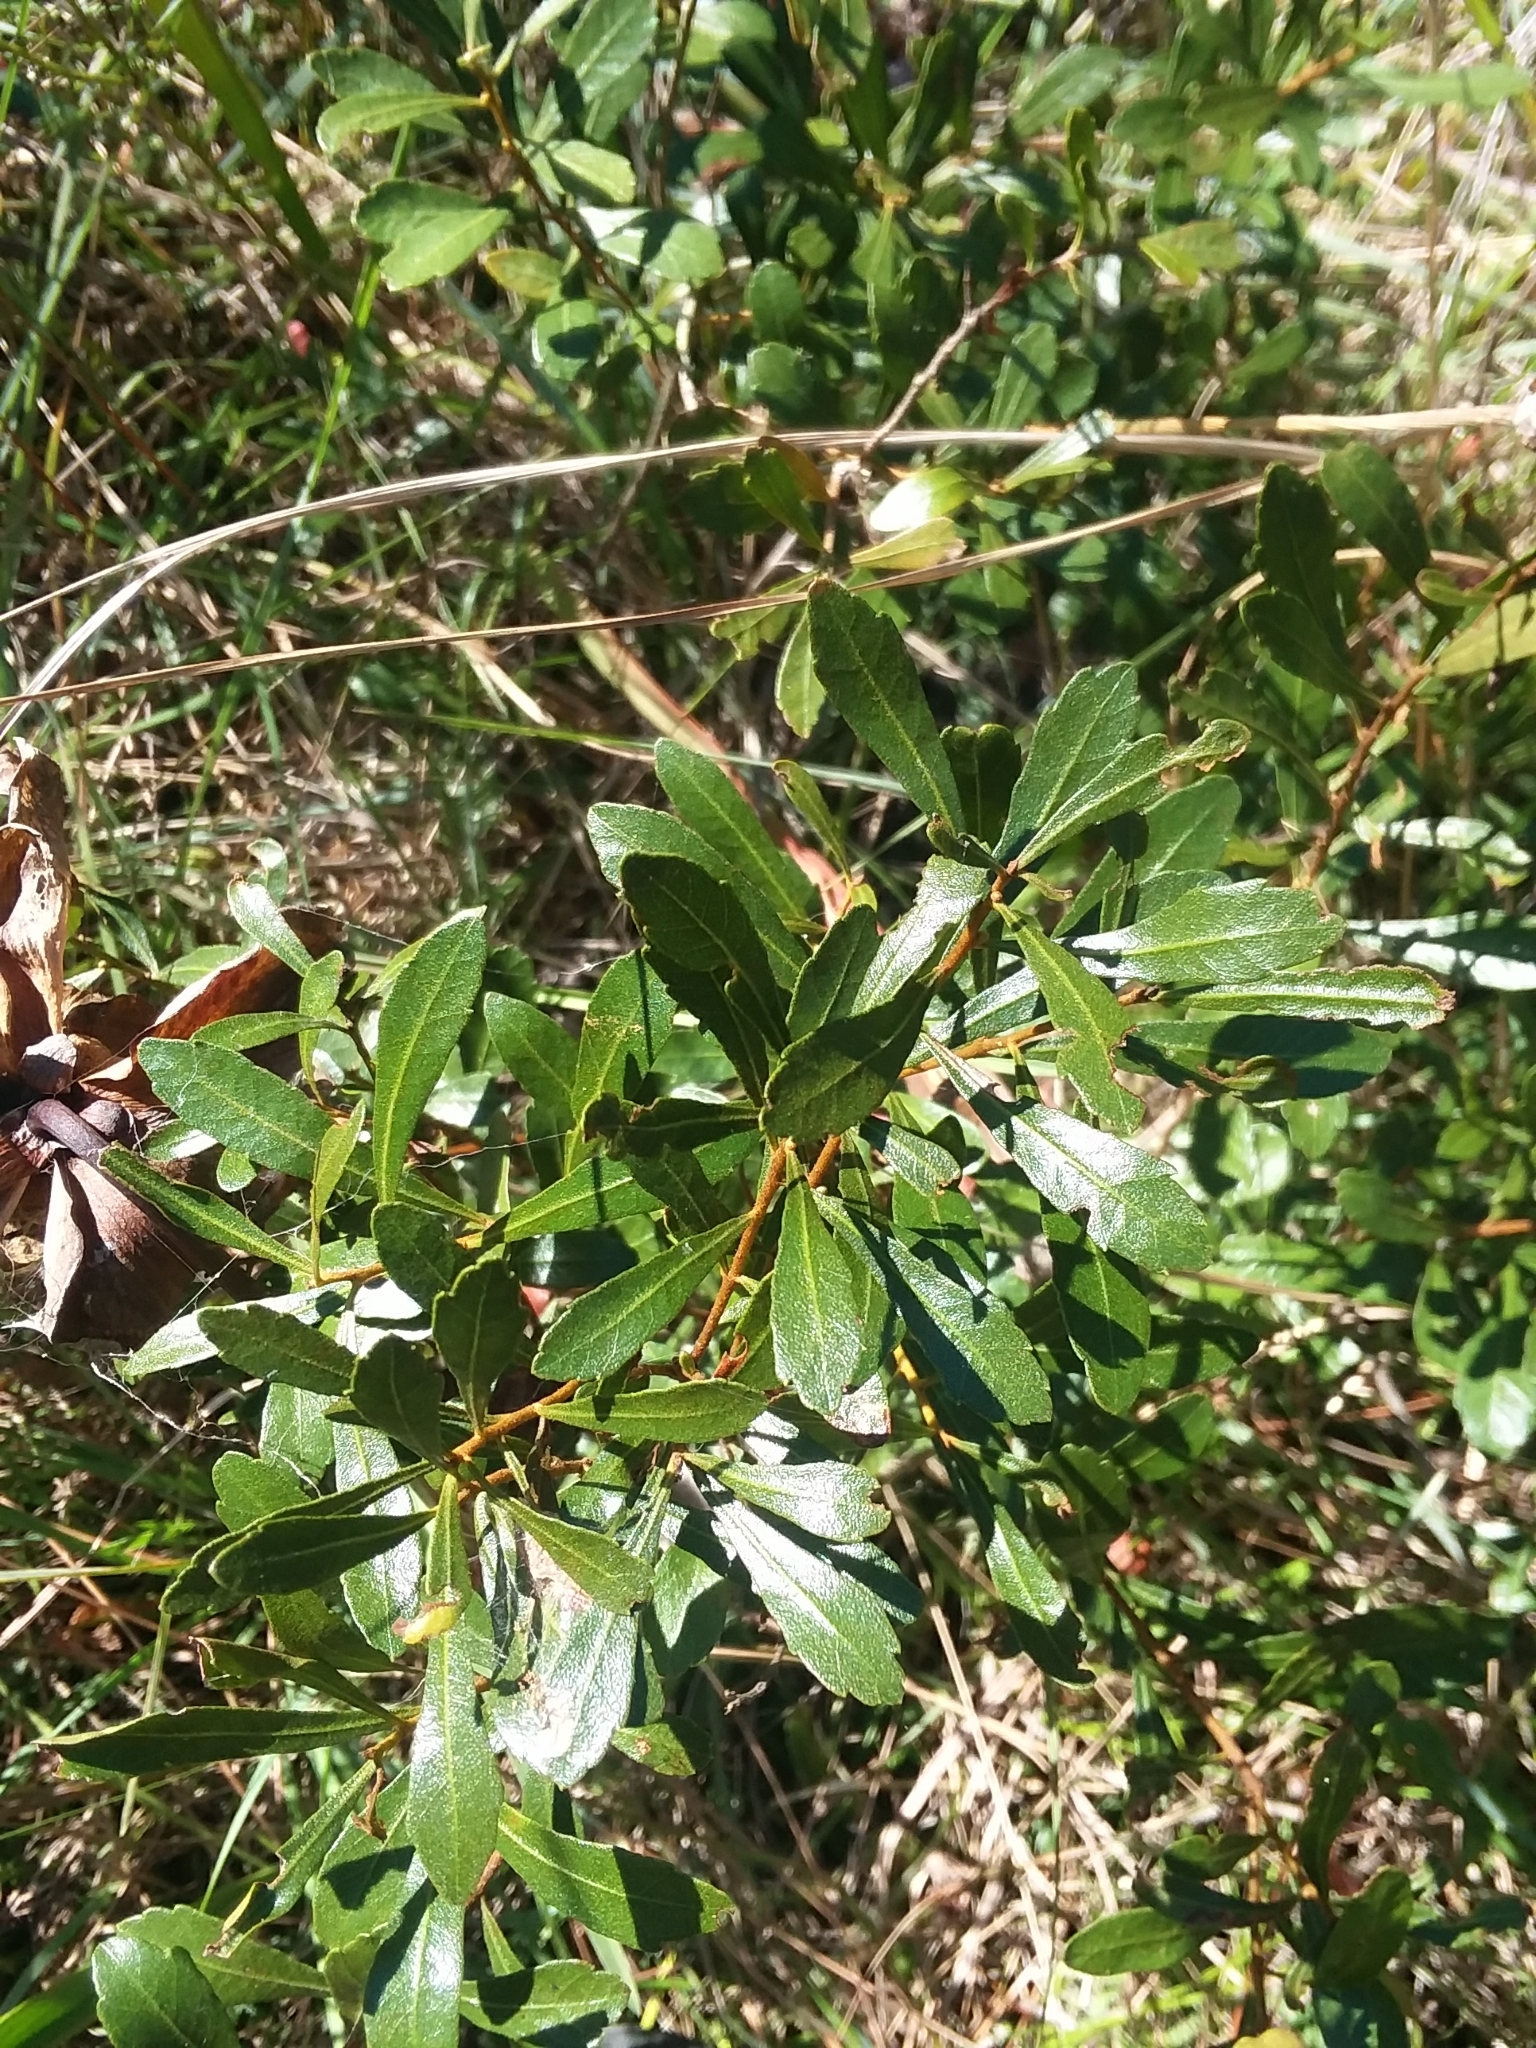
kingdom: Plantae
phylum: Tracheophyta
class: Magnoliopsida
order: Fagales
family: Myricaceae
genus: Morella
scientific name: Morella cerifera
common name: Wax myrtle
